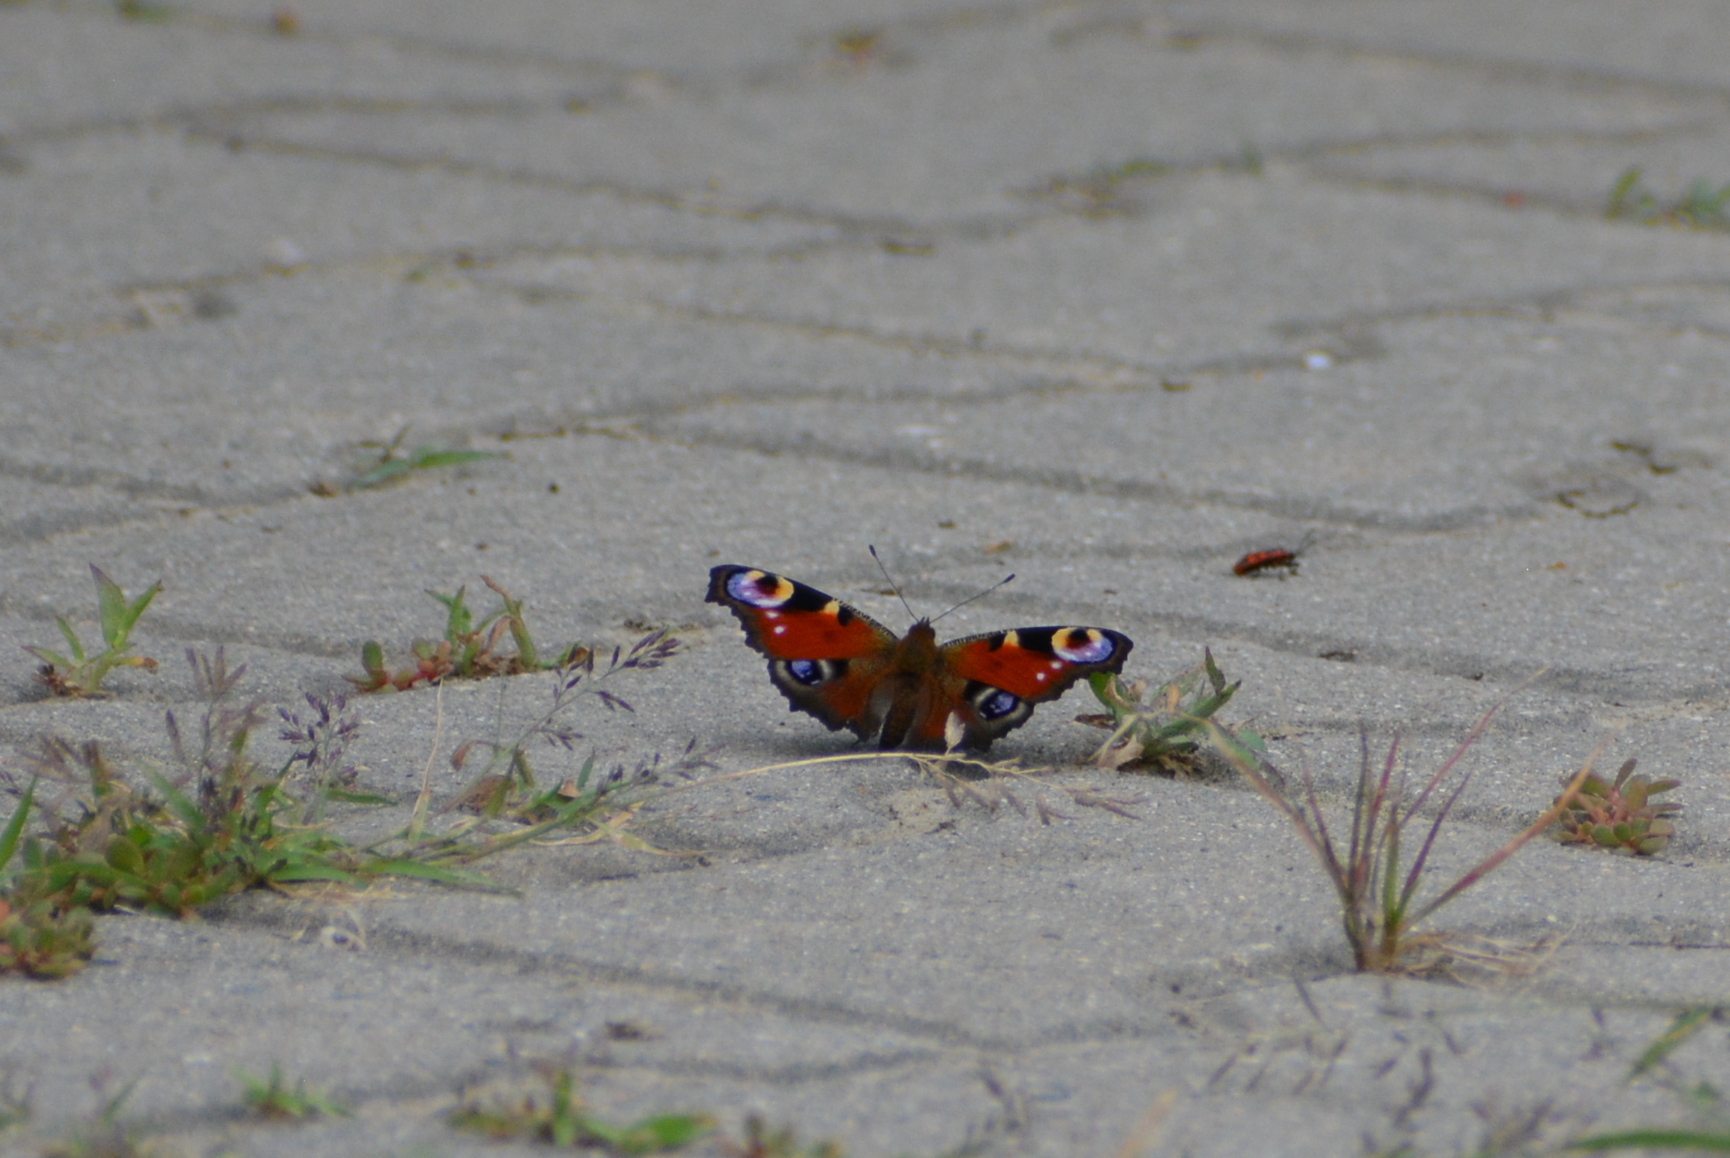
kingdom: Animalia
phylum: Arthropoda
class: Insecta
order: Lepidoptera
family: Nymphalidae
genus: Aglais
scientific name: Aglais io
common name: Peacock
